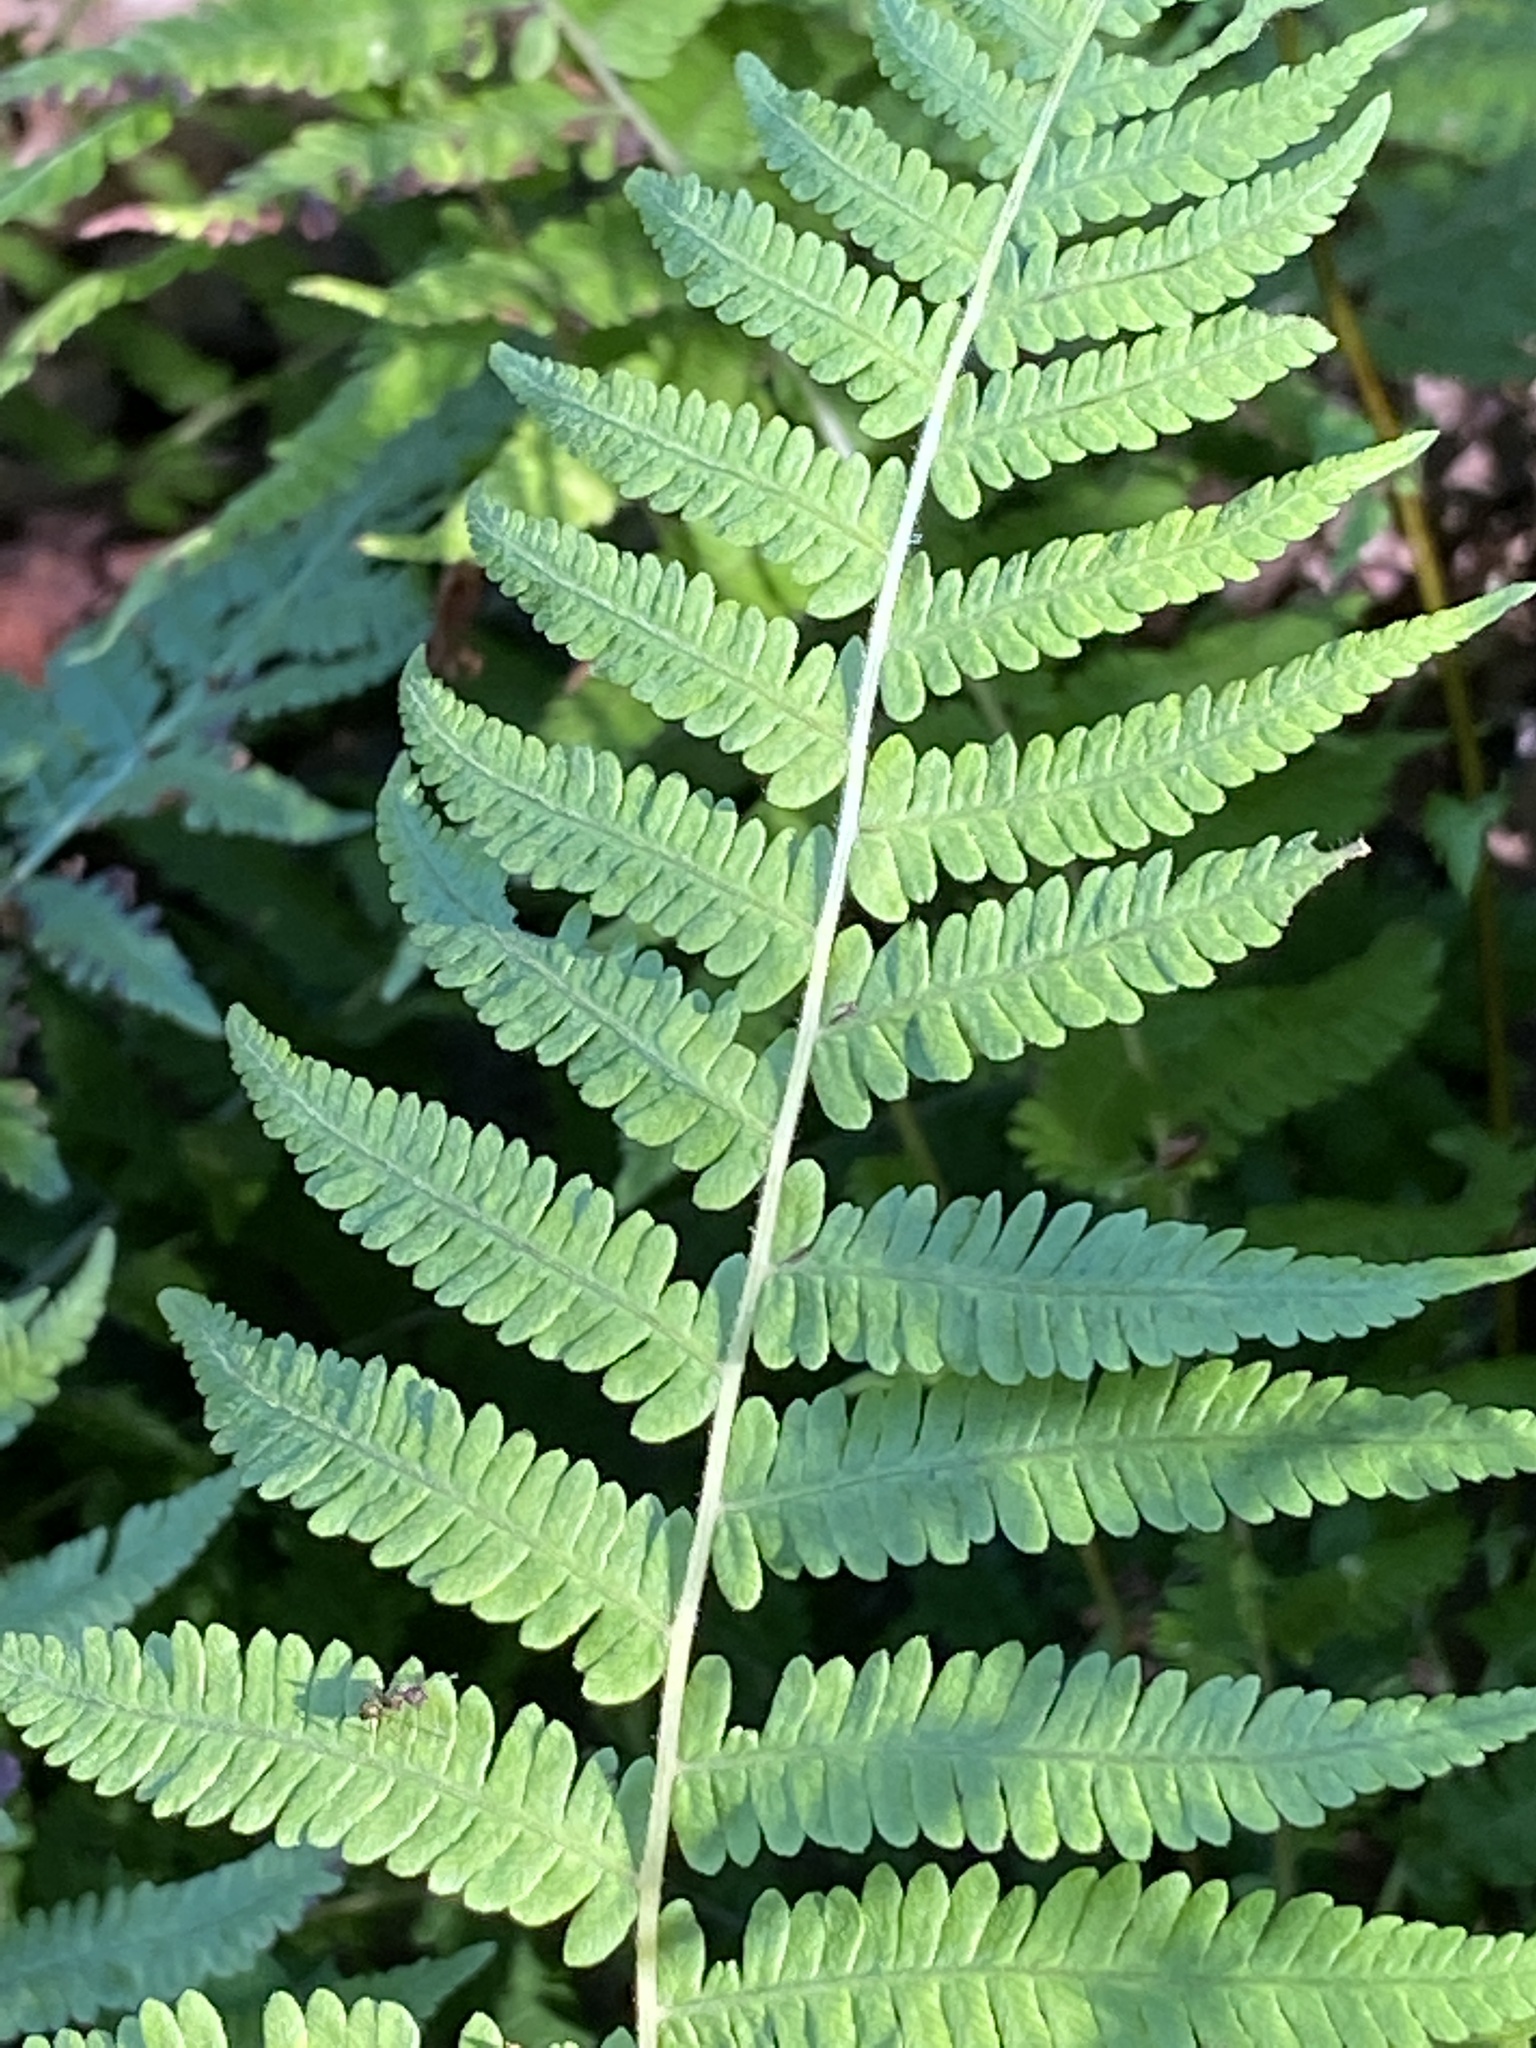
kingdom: Plantae
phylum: Tracheophyta
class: Polypodiopsida
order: Polypodiales
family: Thelypteridaceae
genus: Amauropelta
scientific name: Amauropelta noveboracensis
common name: New york fern
